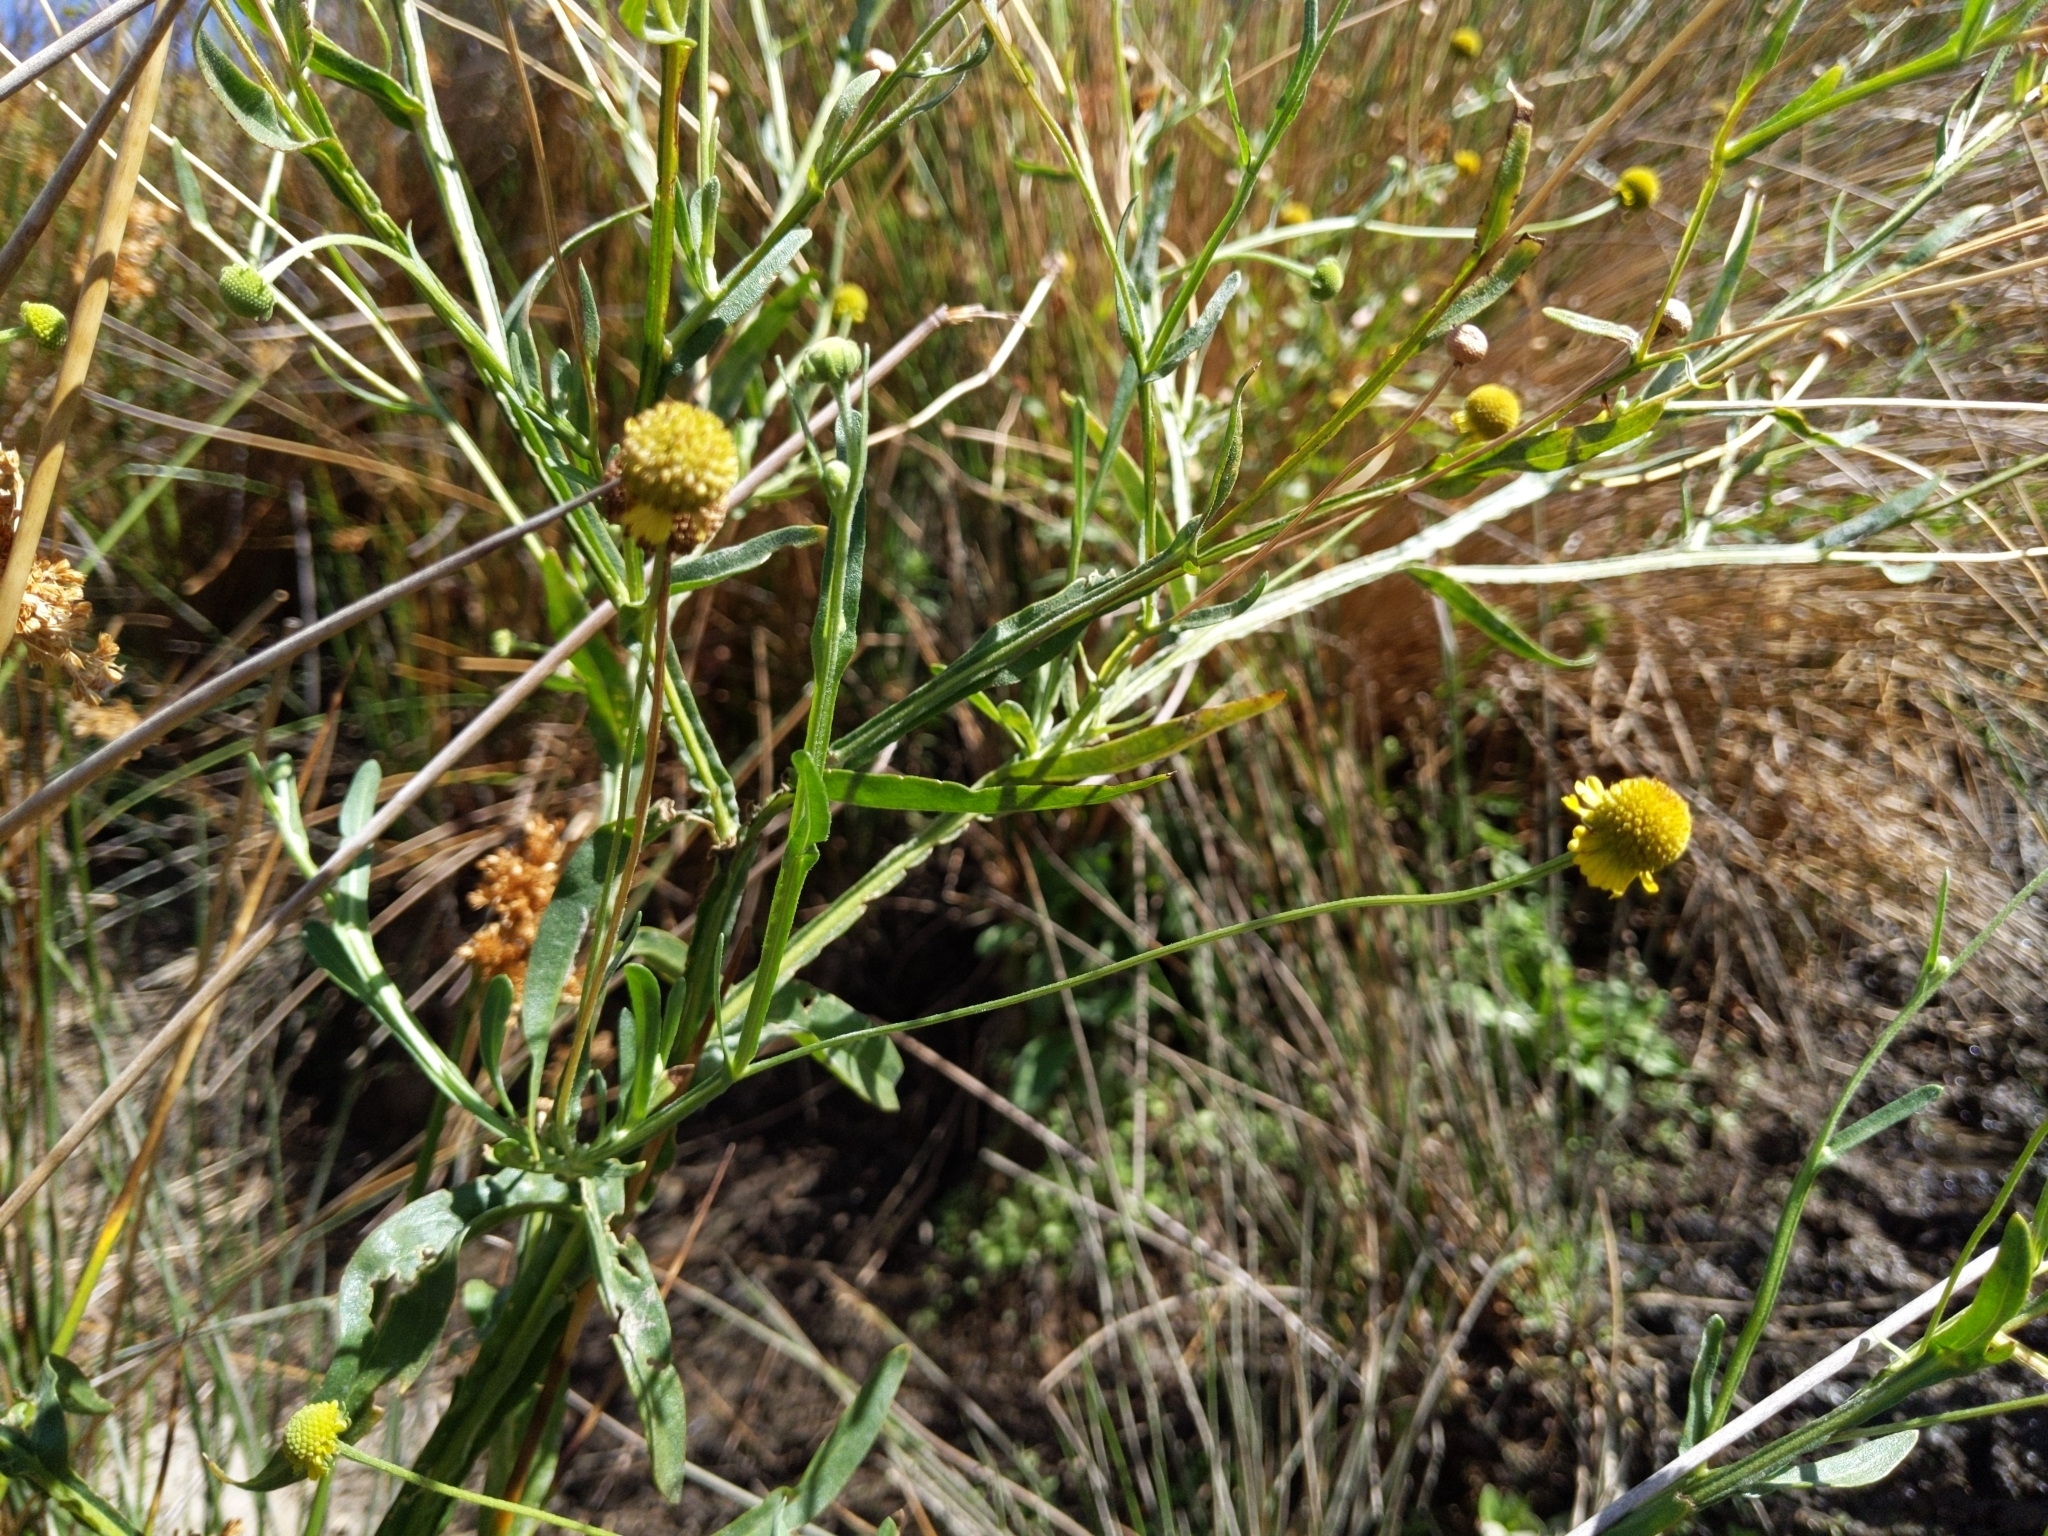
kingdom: Plantae
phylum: Tracheophyta
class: Magnoliopsida
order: Asterales
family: Asteraceae
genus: Helenium
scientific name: Helenium puberulum
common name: Sneezewort
